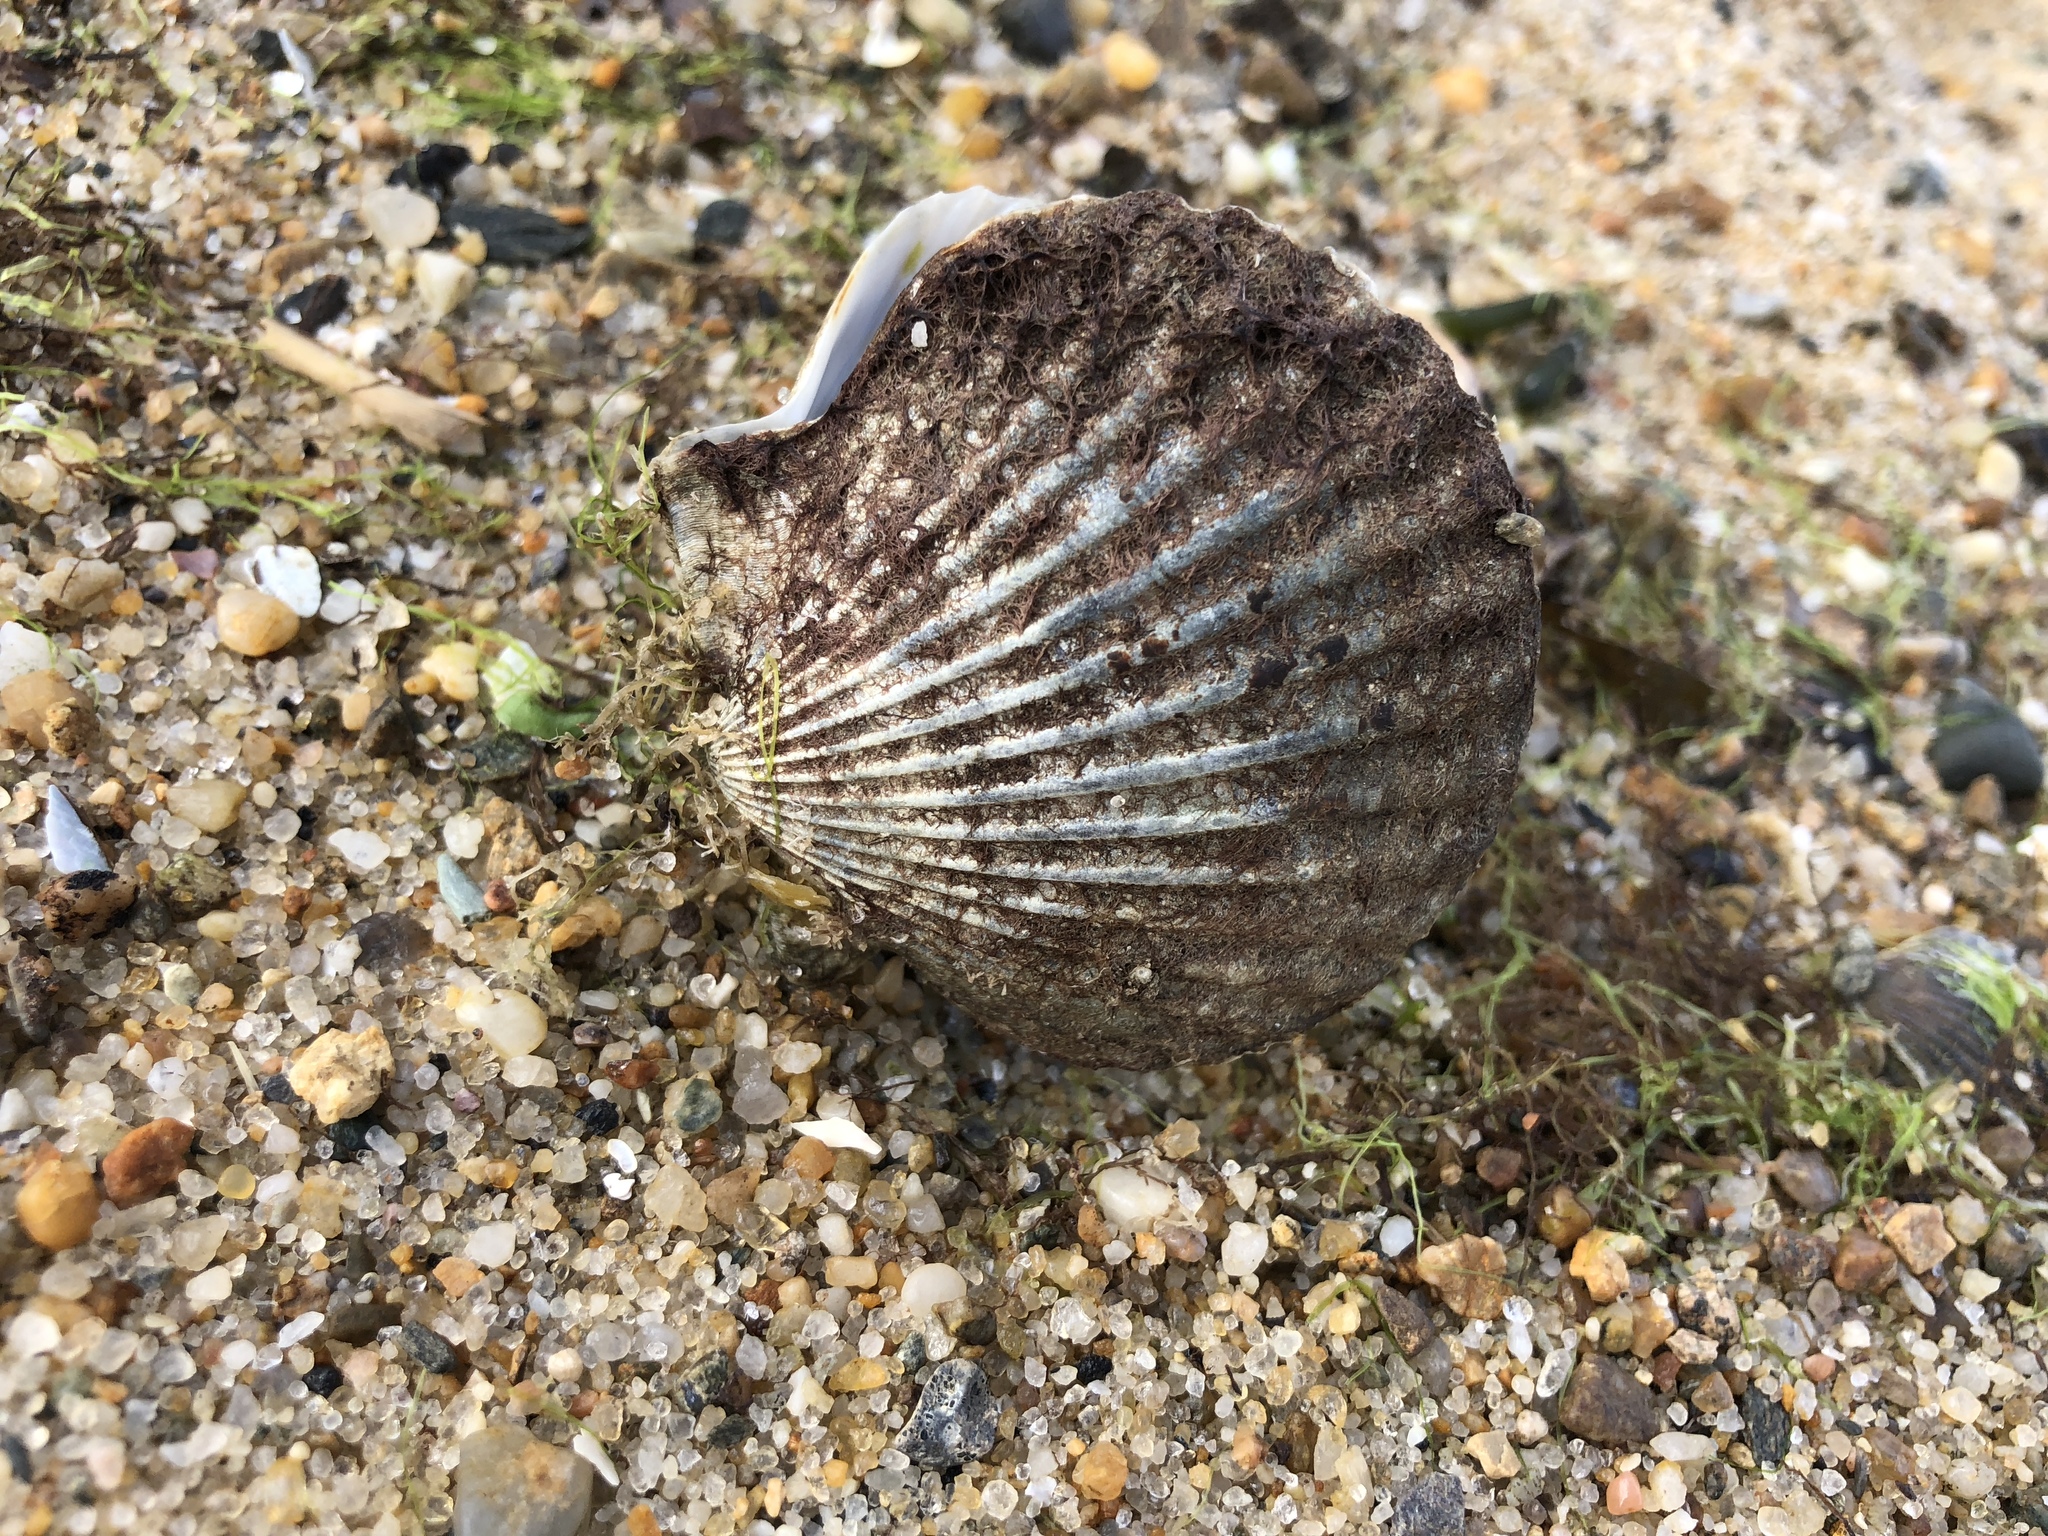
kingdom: Animalia
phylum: Mollusca
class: Bivalvia
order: Pectinida
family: Pectinidae
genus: Argopecten
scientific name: Argopecten irradians
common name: Atlantic bay scallop
